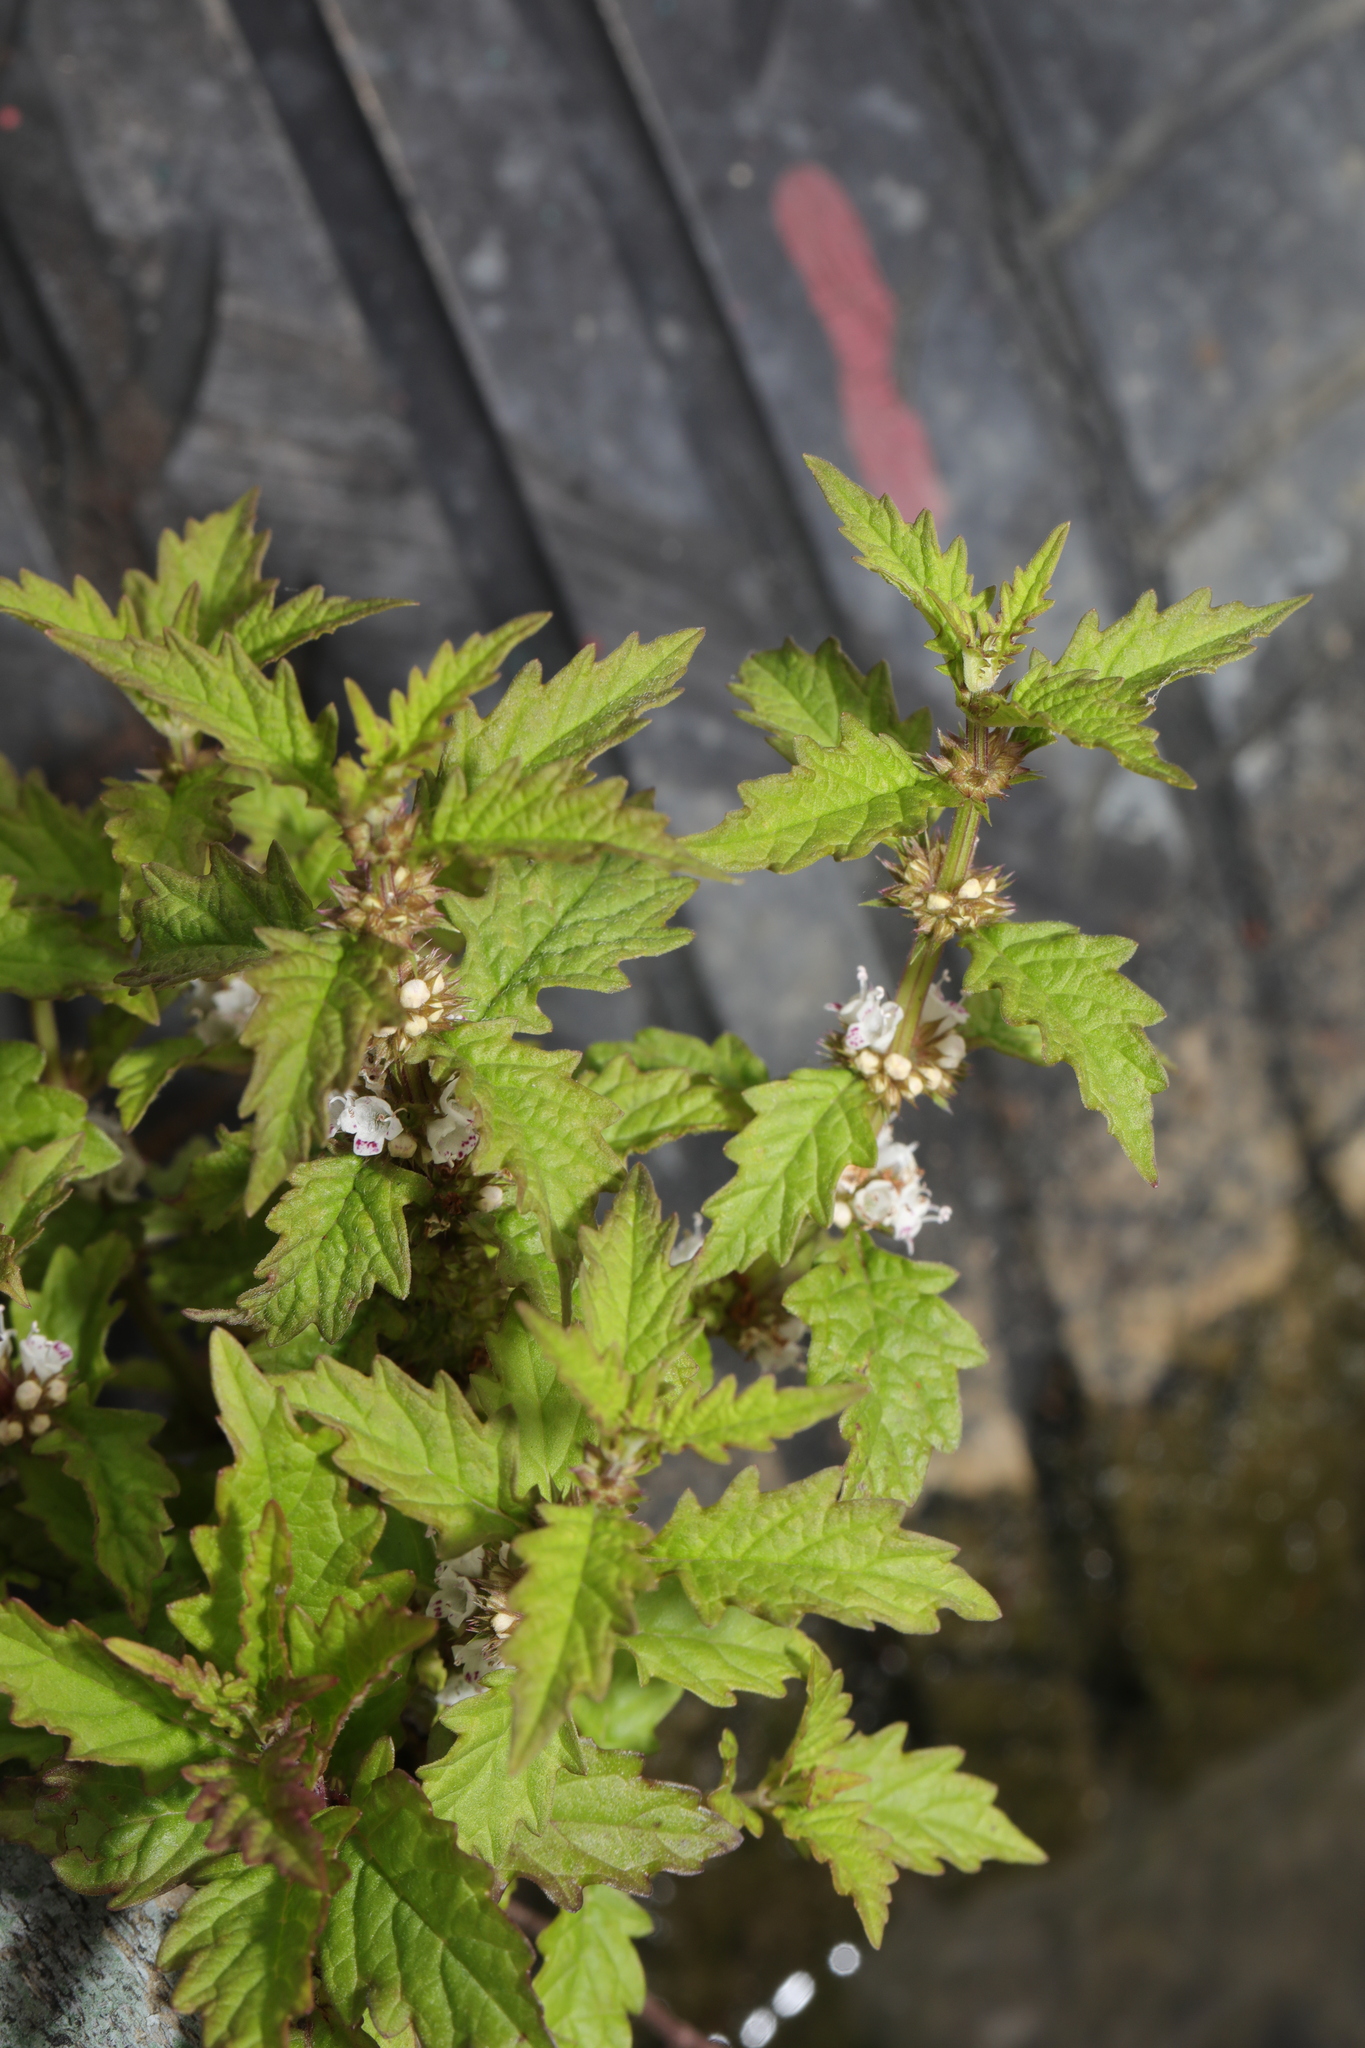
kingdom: Plantae
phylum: Tracheophyta
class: Magnoliopsida
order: Lamiales
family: Lamiaceae
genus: Lycopus
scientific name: Lycopus europaeus
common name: European bugleweed
